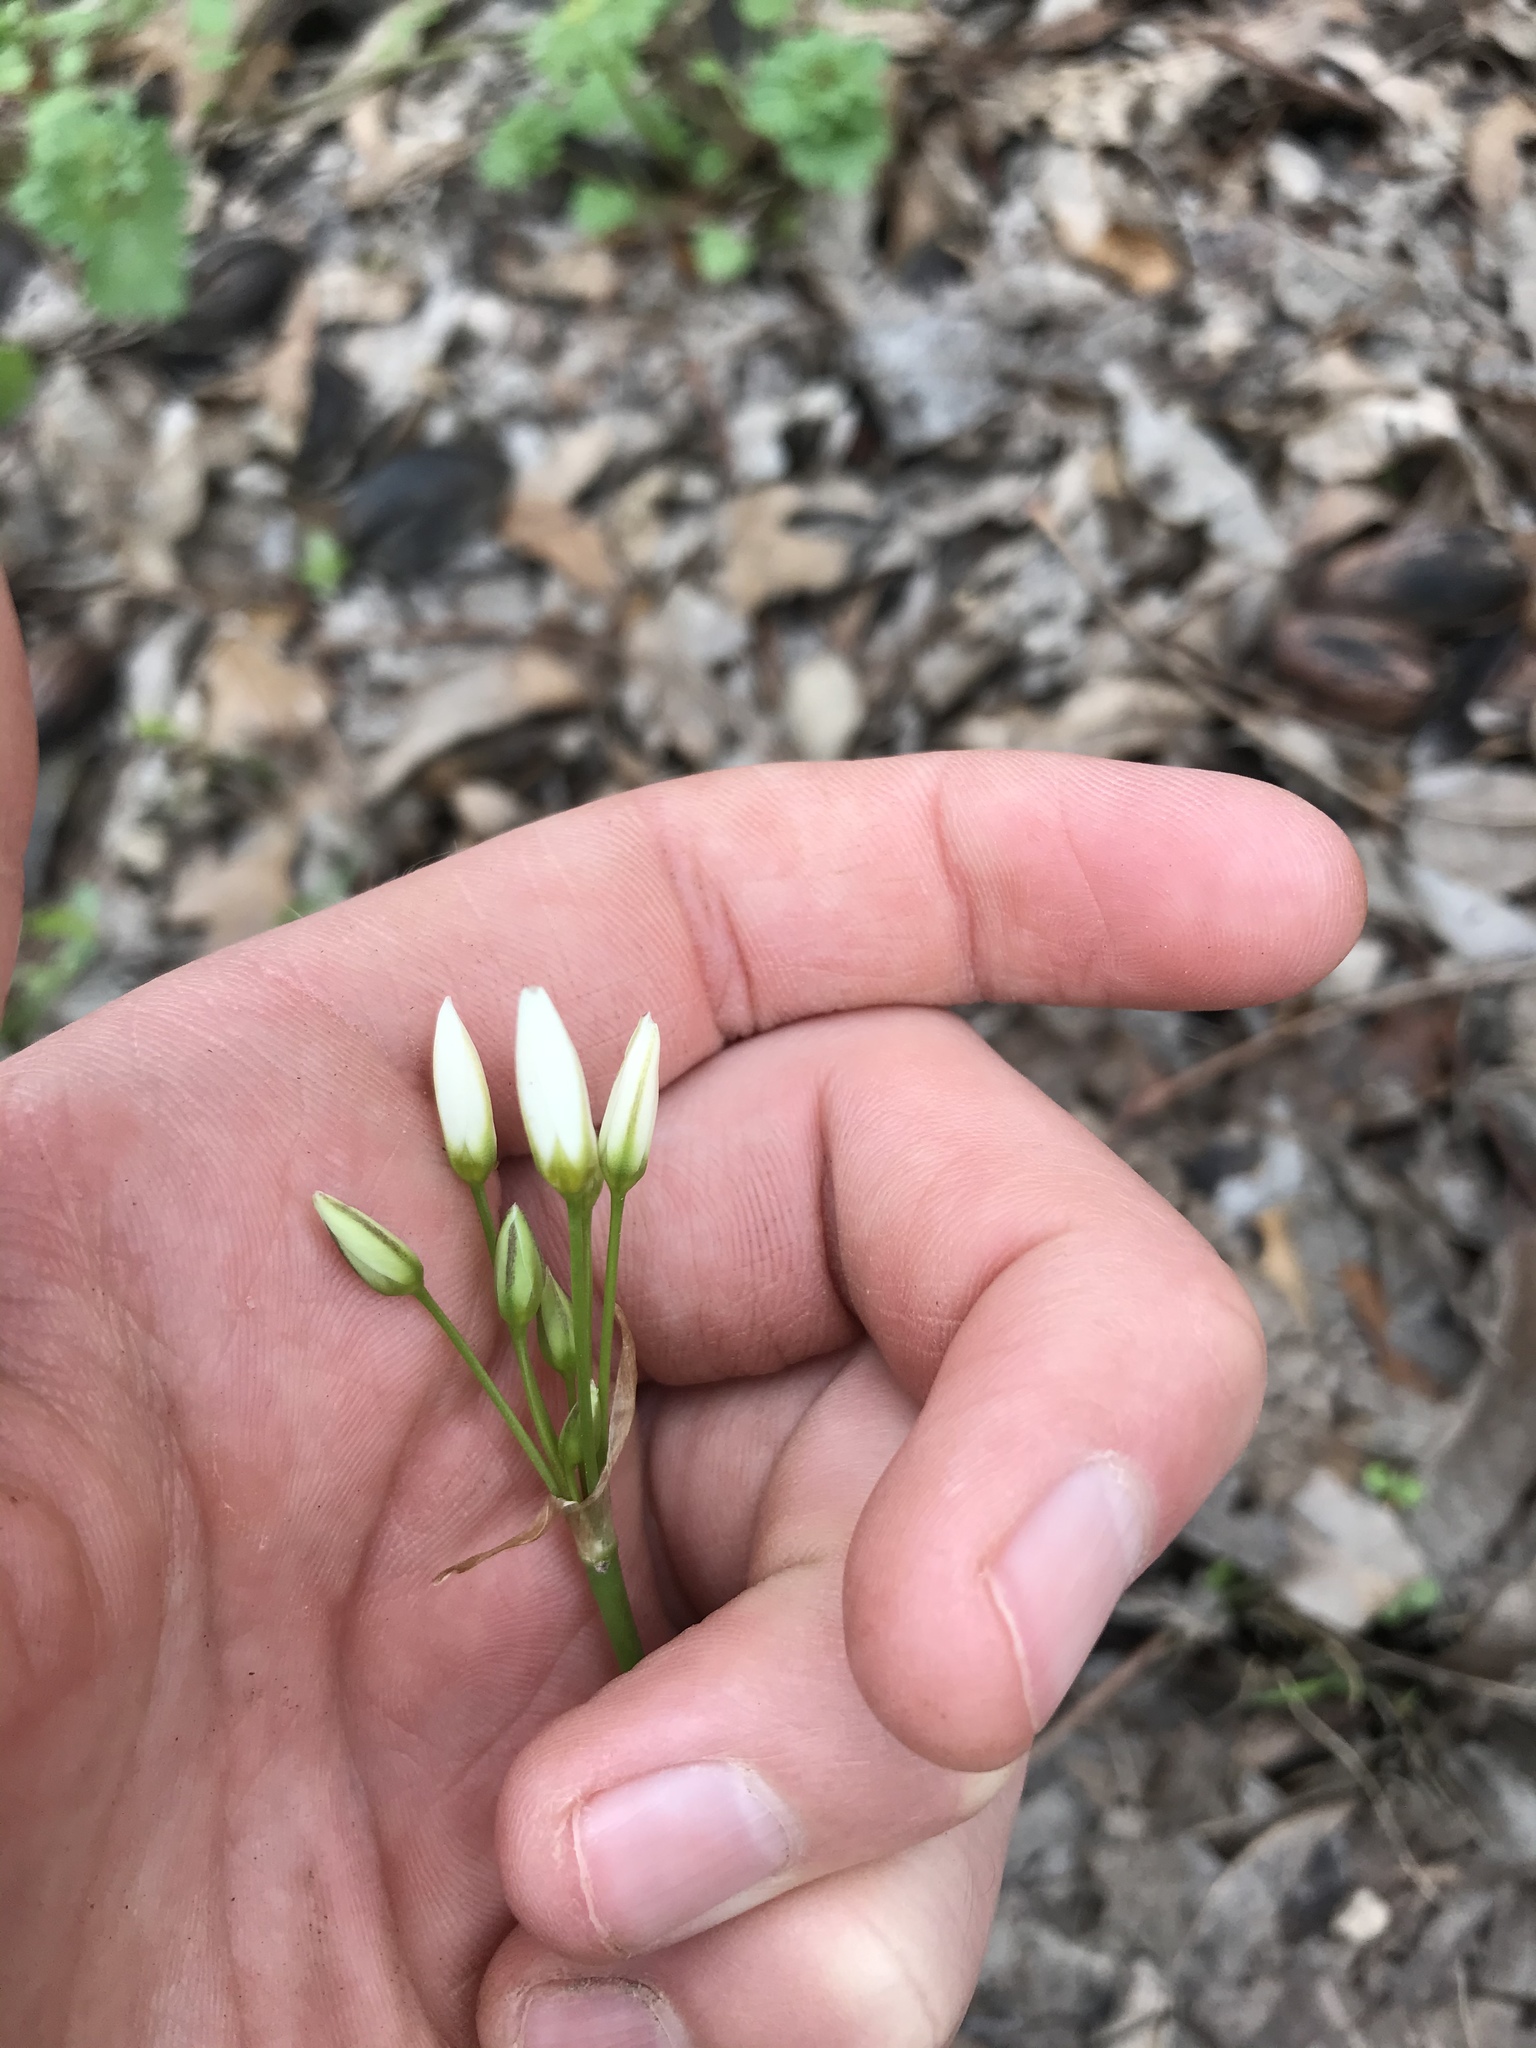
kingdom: Plantae
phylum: Tracheophyta
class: Liliopsida
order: Asparagales
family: Amaryllidaceae
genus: Nothoscordum
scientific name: Nothoscordum bivalve
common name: Crow-poison
